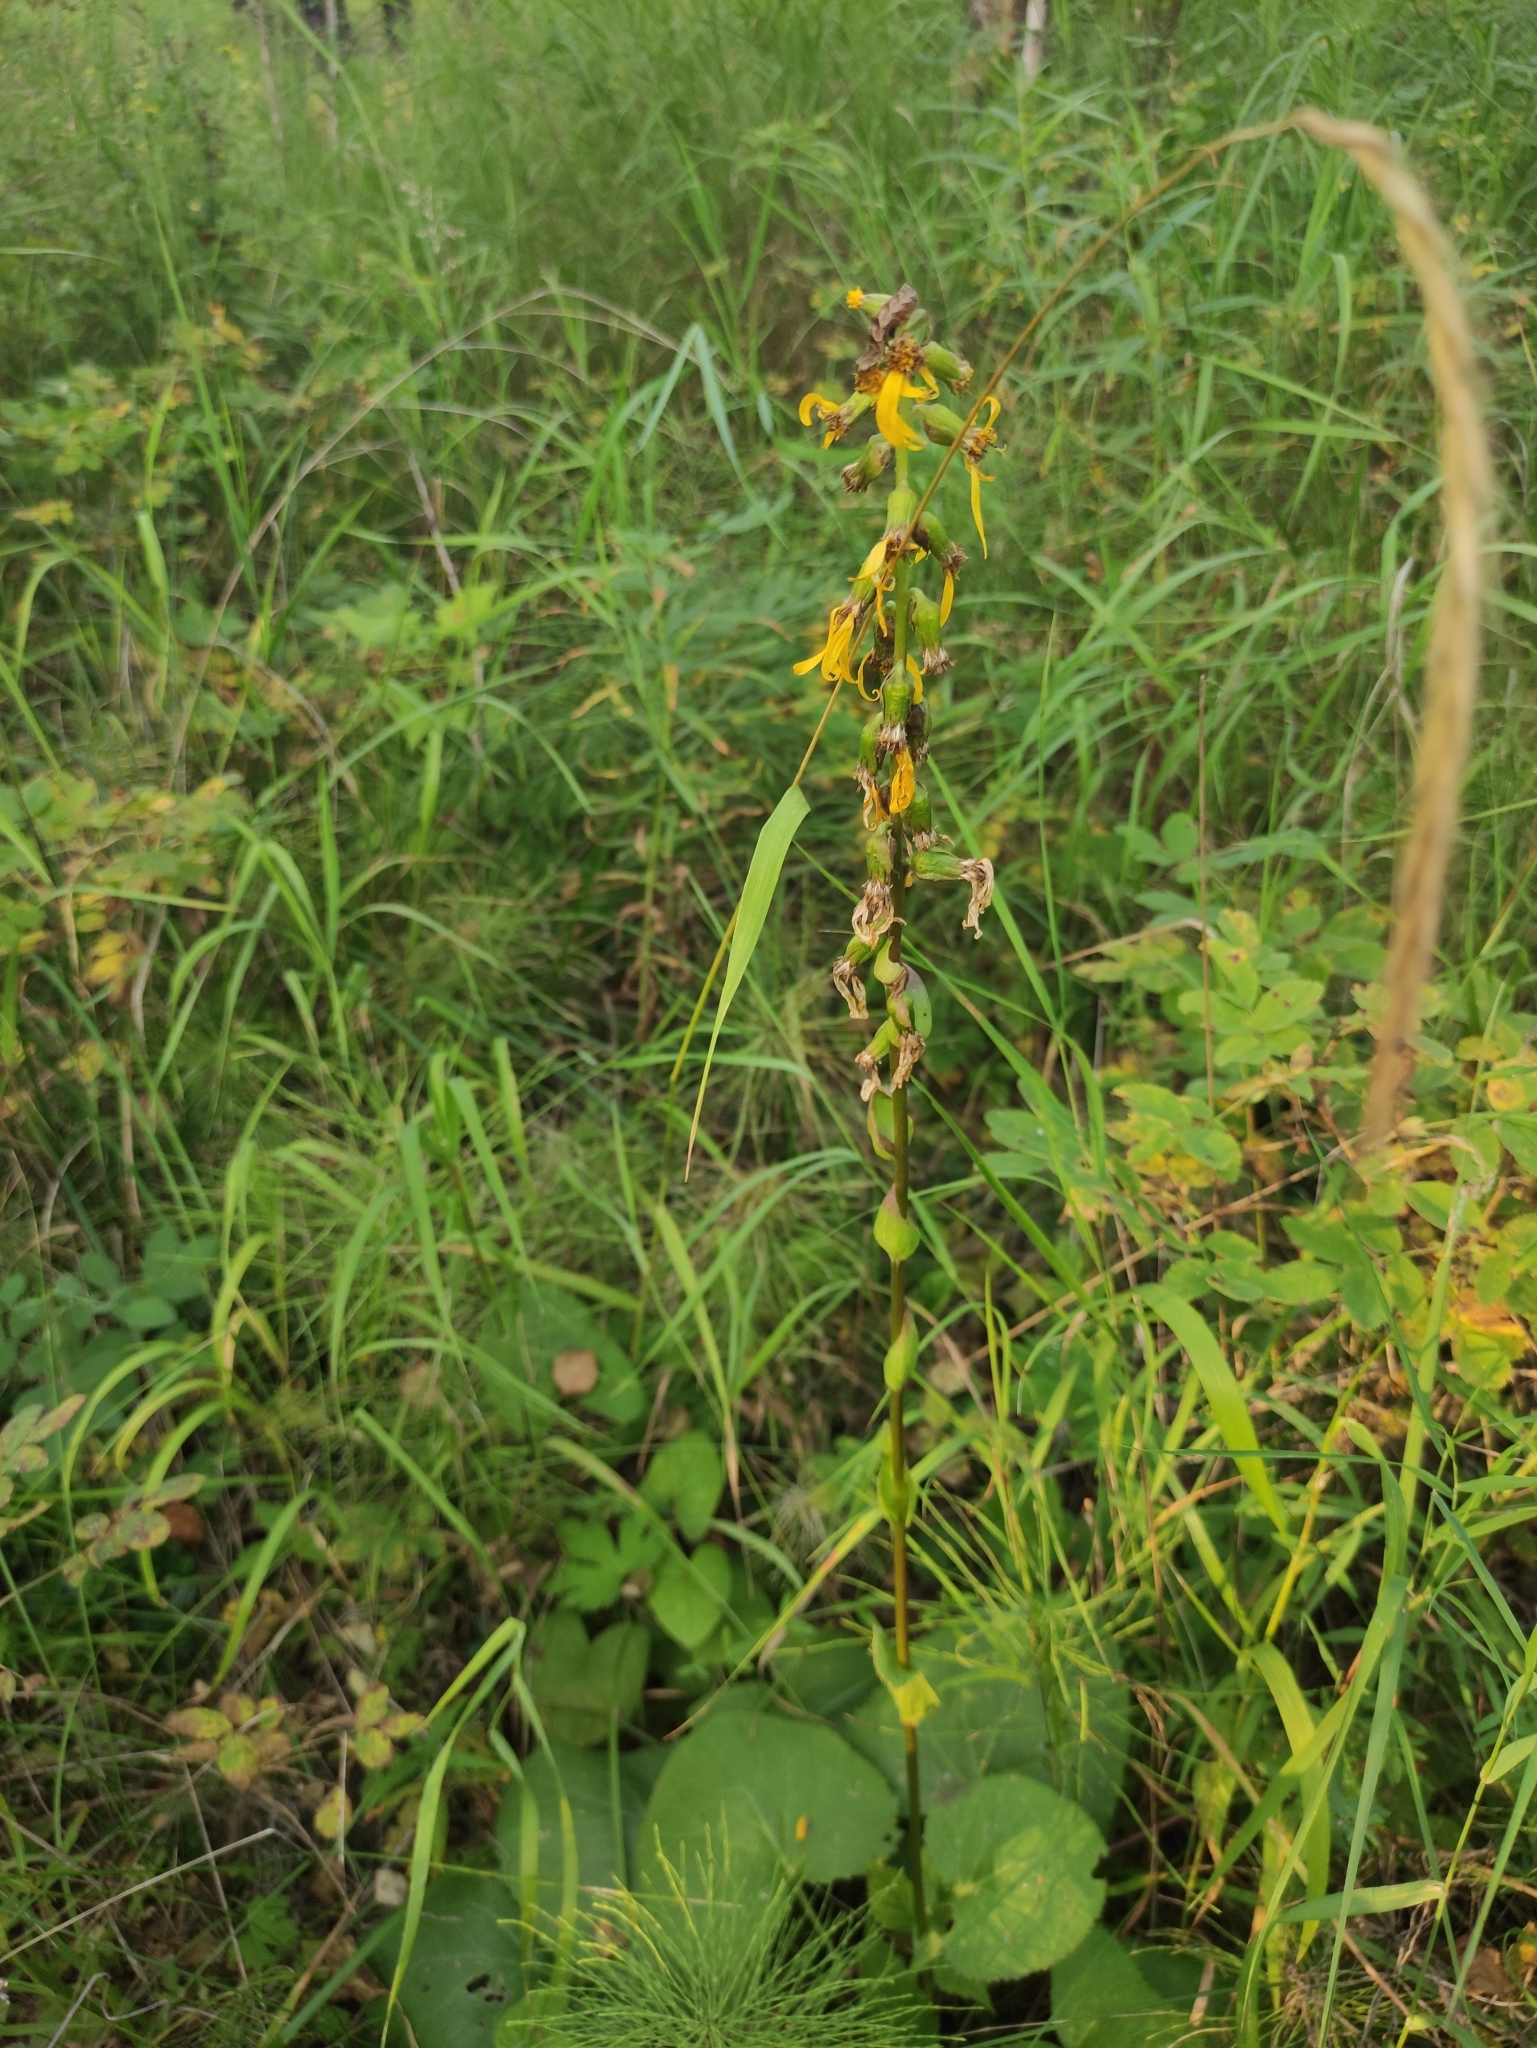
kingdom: Plantae
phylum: Tracheophyta
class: Magnoliopsida
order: Asterales
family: Asteraceae
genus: Ligularia
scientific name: Ligularia sibirica
